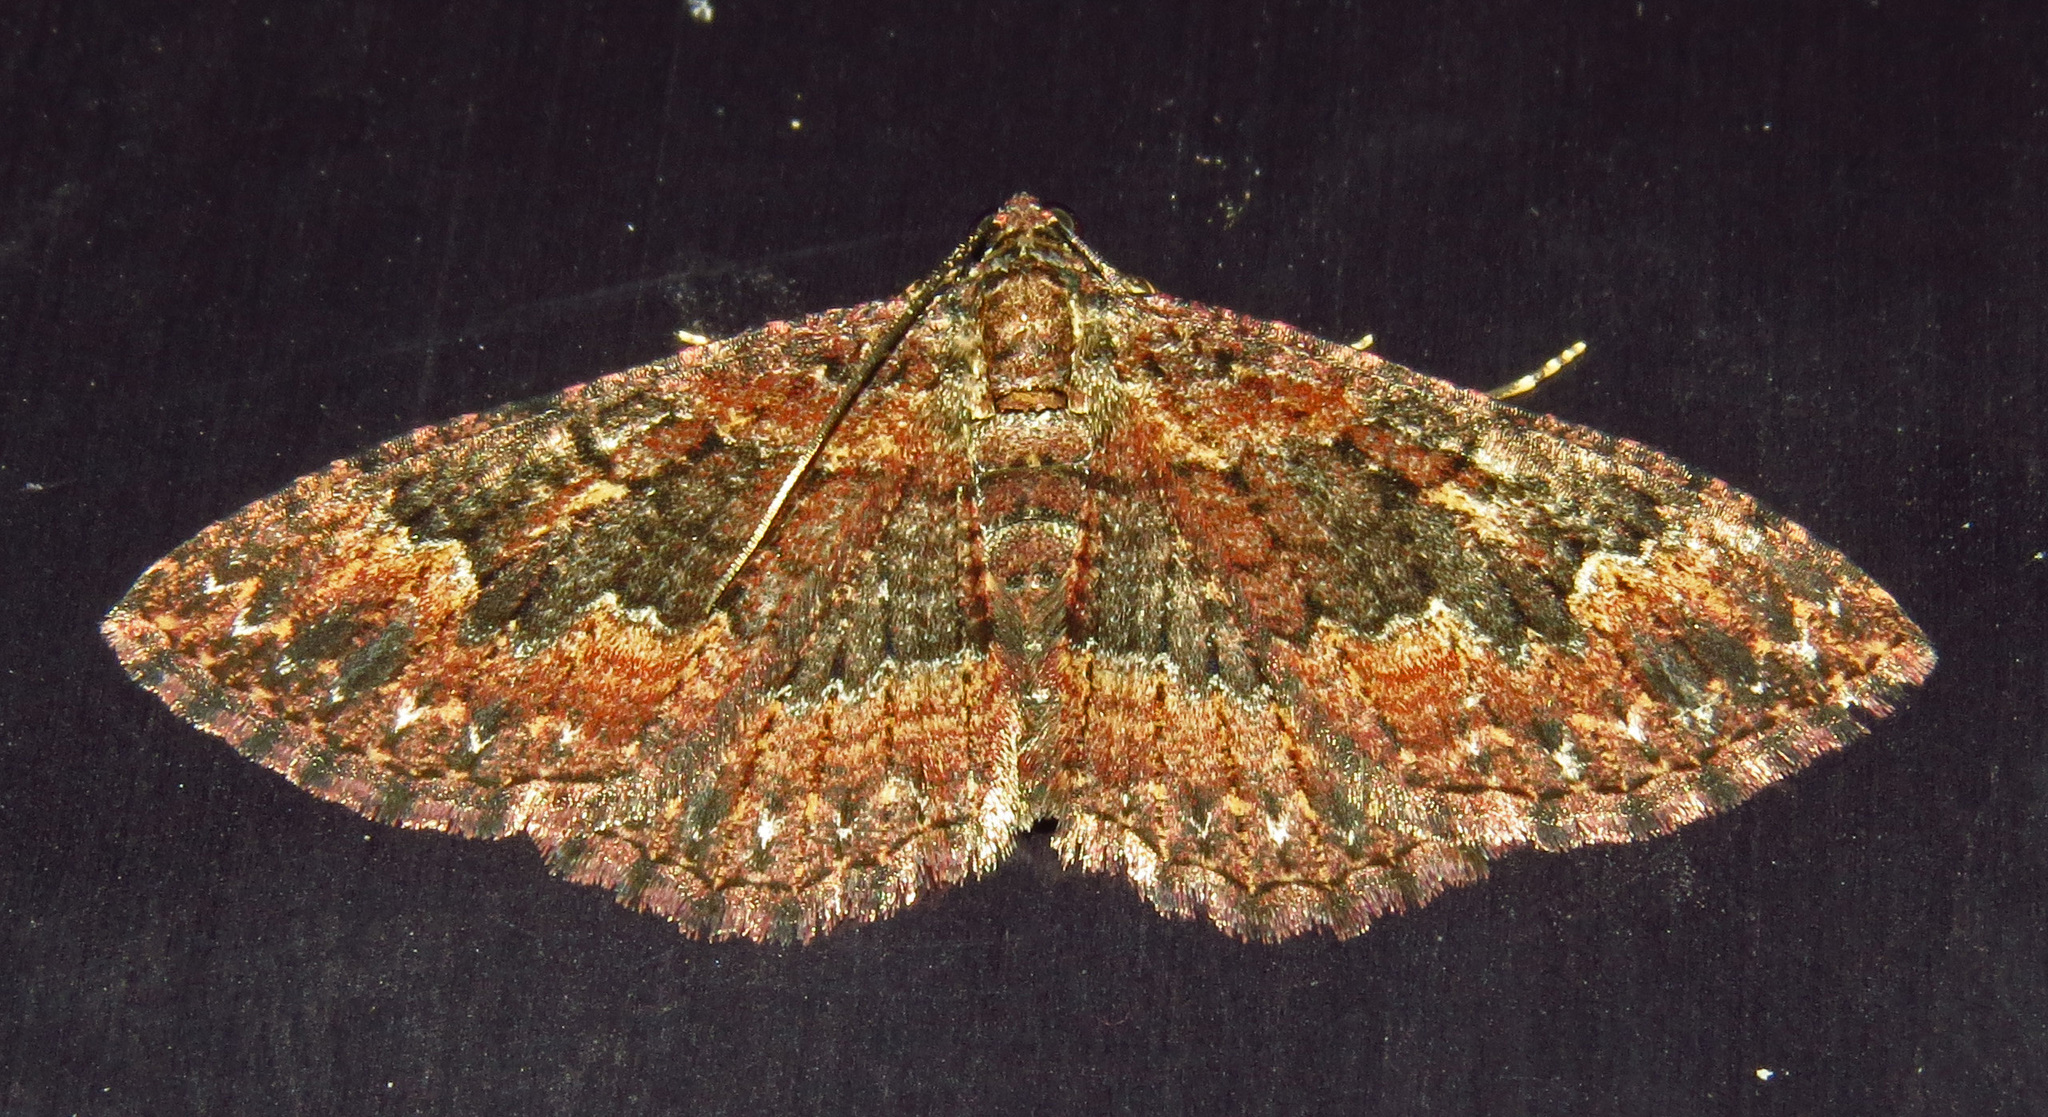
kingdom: Animalia
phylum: Arthropoda
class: Insecta
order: Lepidoptera
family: Geometridae
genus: Disclisioprocta
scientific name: Disclisioprocta stellata
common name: Somber carpet
